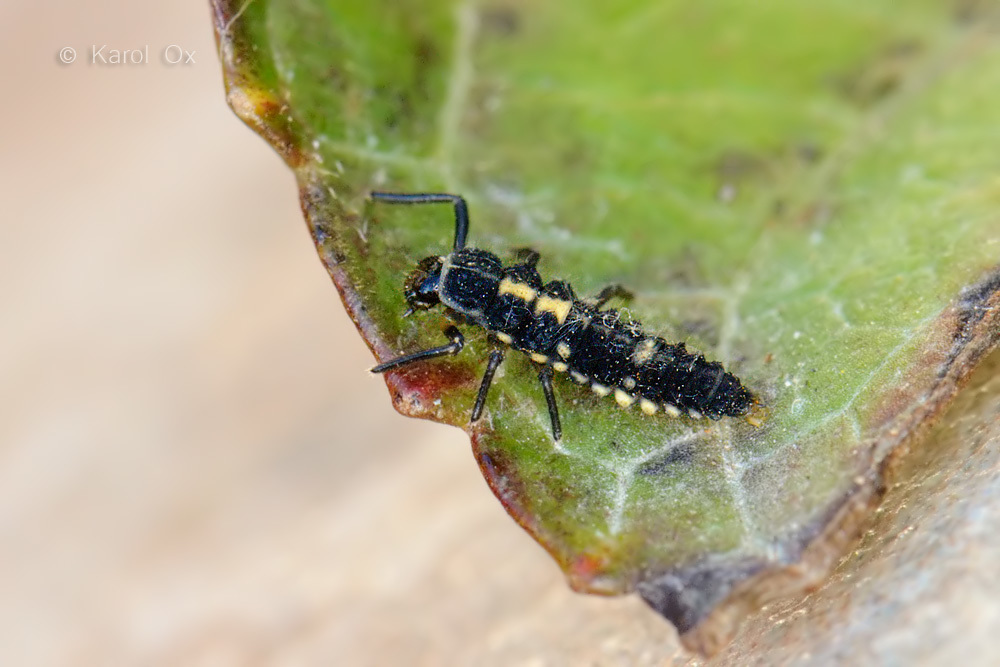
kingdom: Animalia
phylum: Arthropoda
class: Insecta
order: Coleoptera
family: Coccinellidae
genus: Propylaea
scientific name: Propylaea quatuordecimpunctata
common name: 14-spotted ladybird beetle
